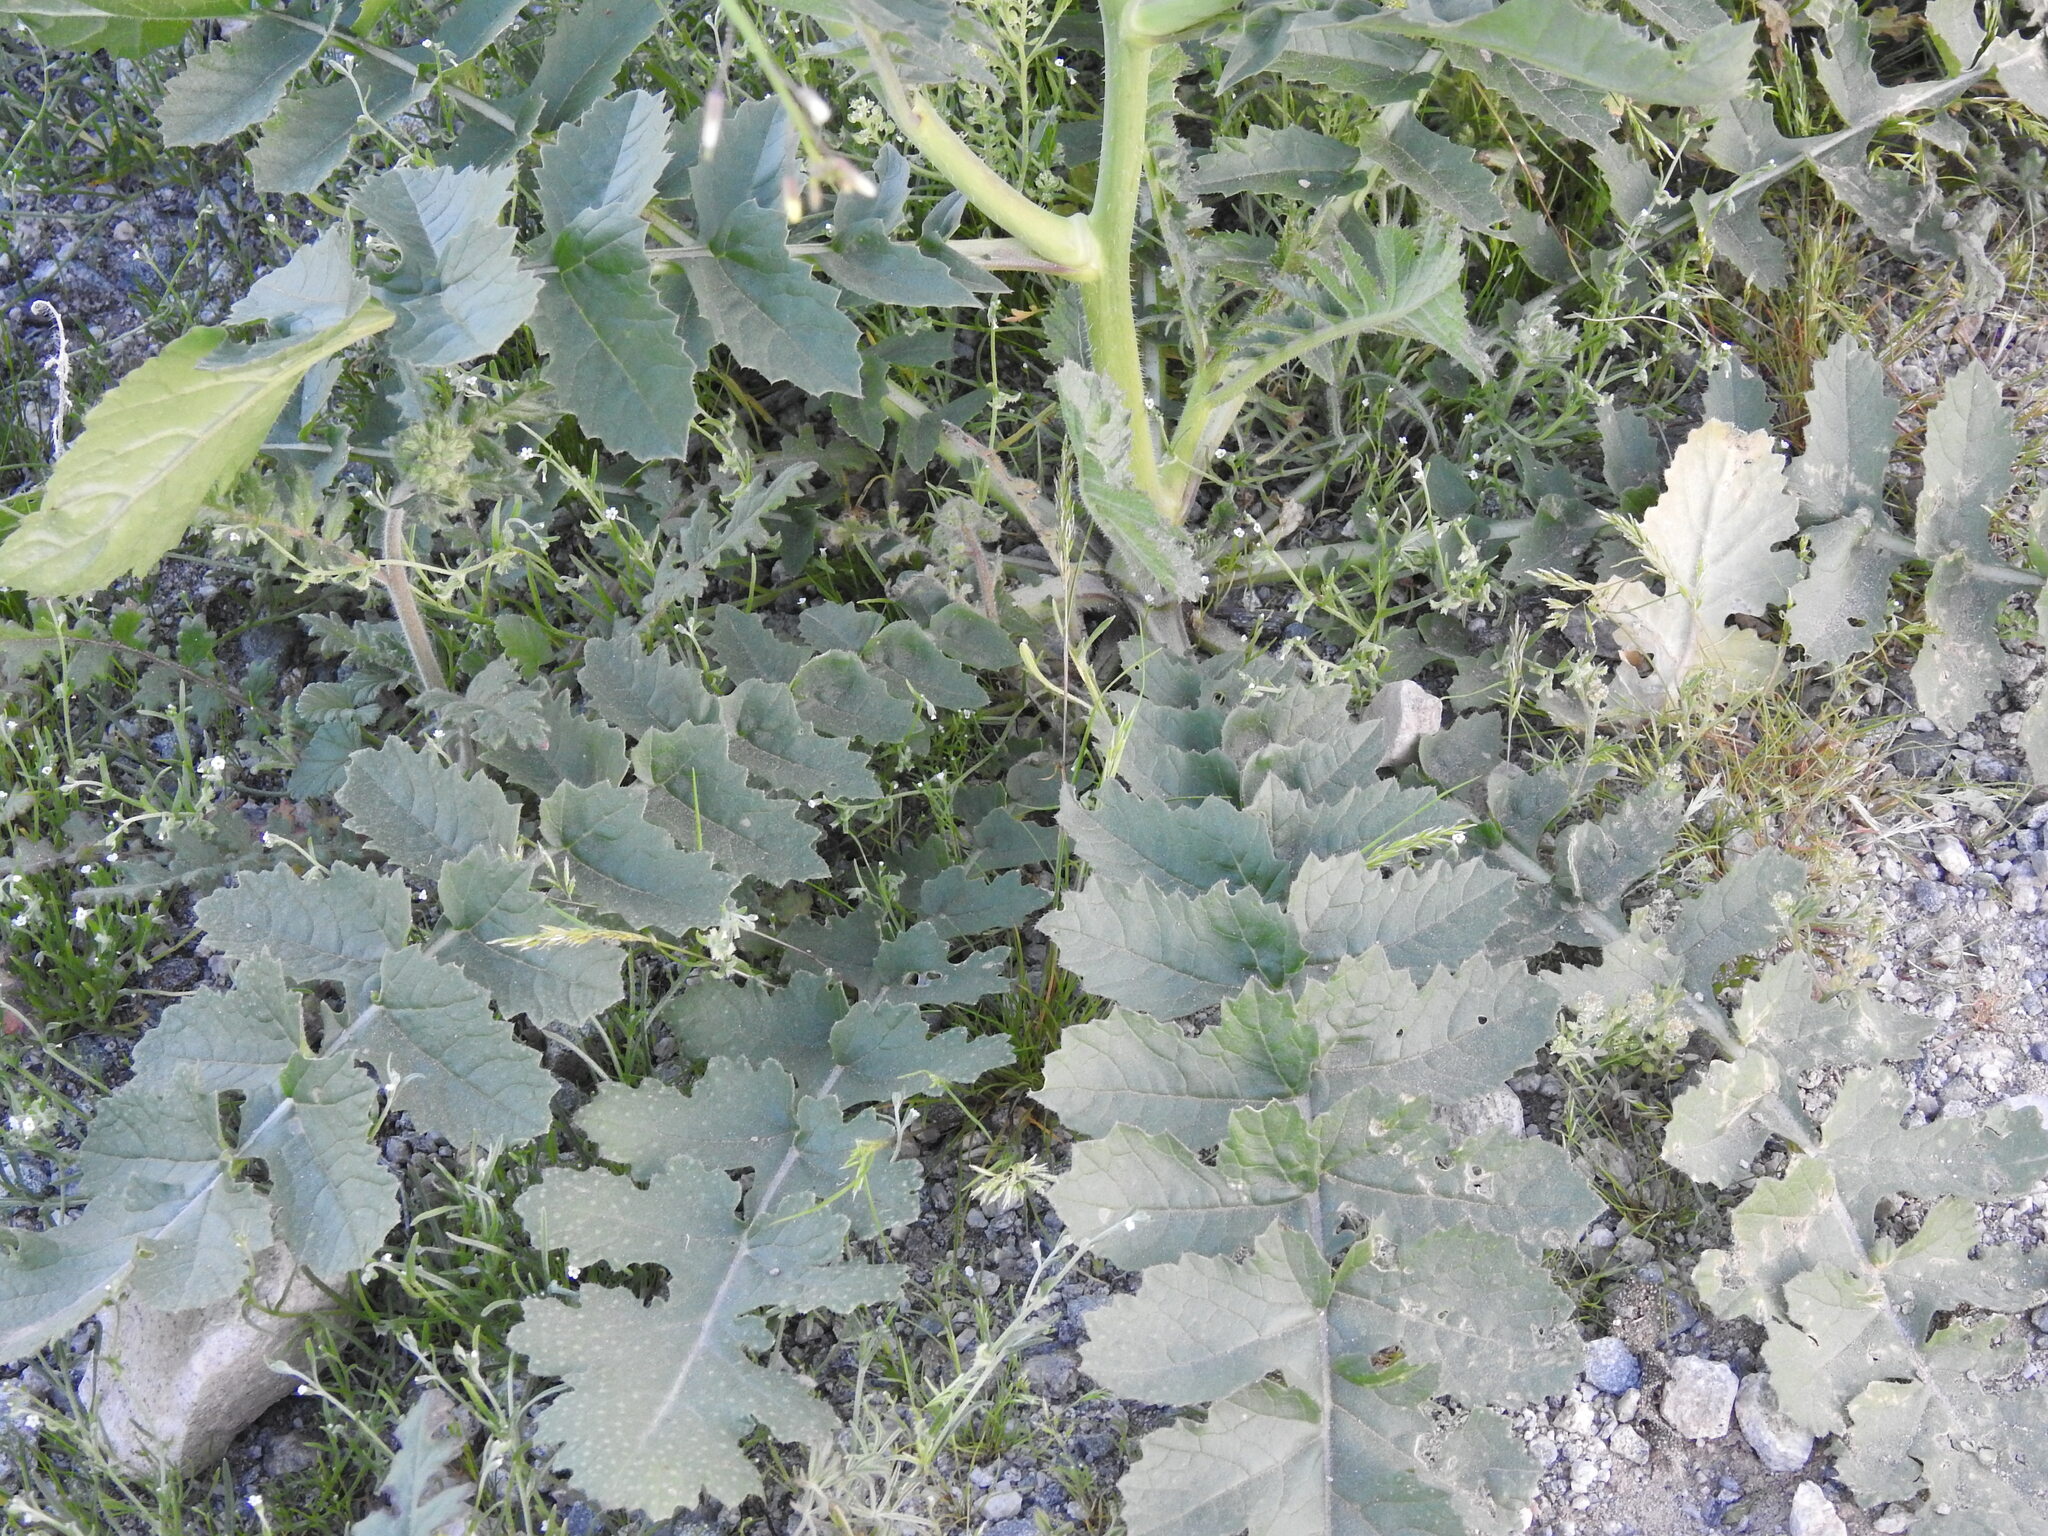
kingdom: Plantae
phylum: Tracheophyta
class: Magnoliopsida
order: Brassicales
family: Brassicaceae
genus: Brassica
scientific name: Brassica tournefortii
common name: Pale cabbage
